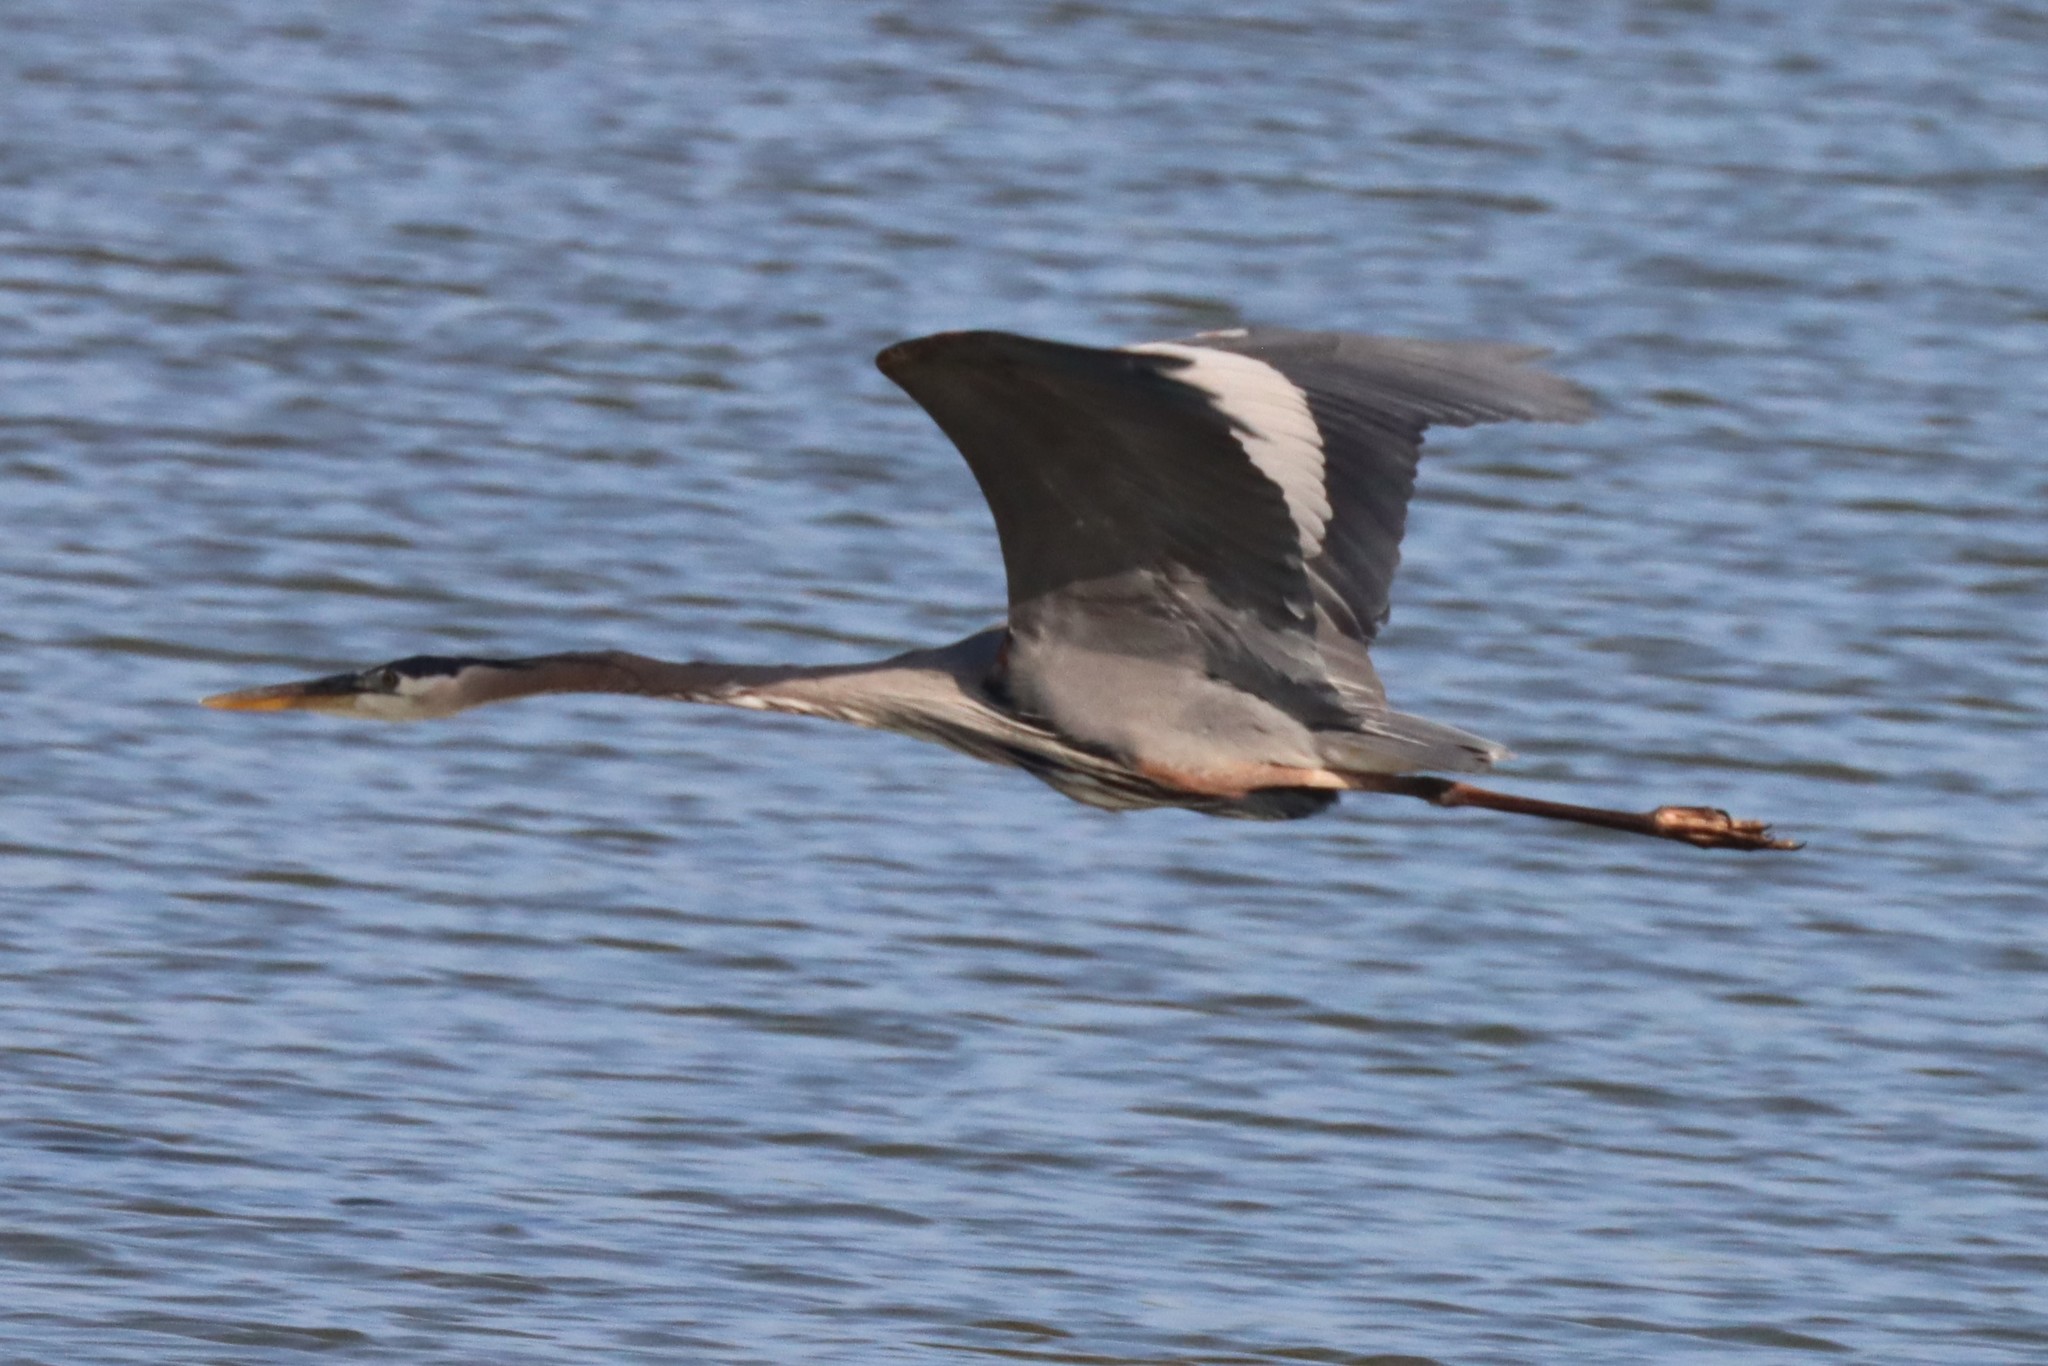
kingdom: Animalia
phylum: Chordata
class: Aves
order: Pelecaniformes
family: Ardeidae
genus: Ardea
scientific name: Ardea herodias
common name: Great blue heron
